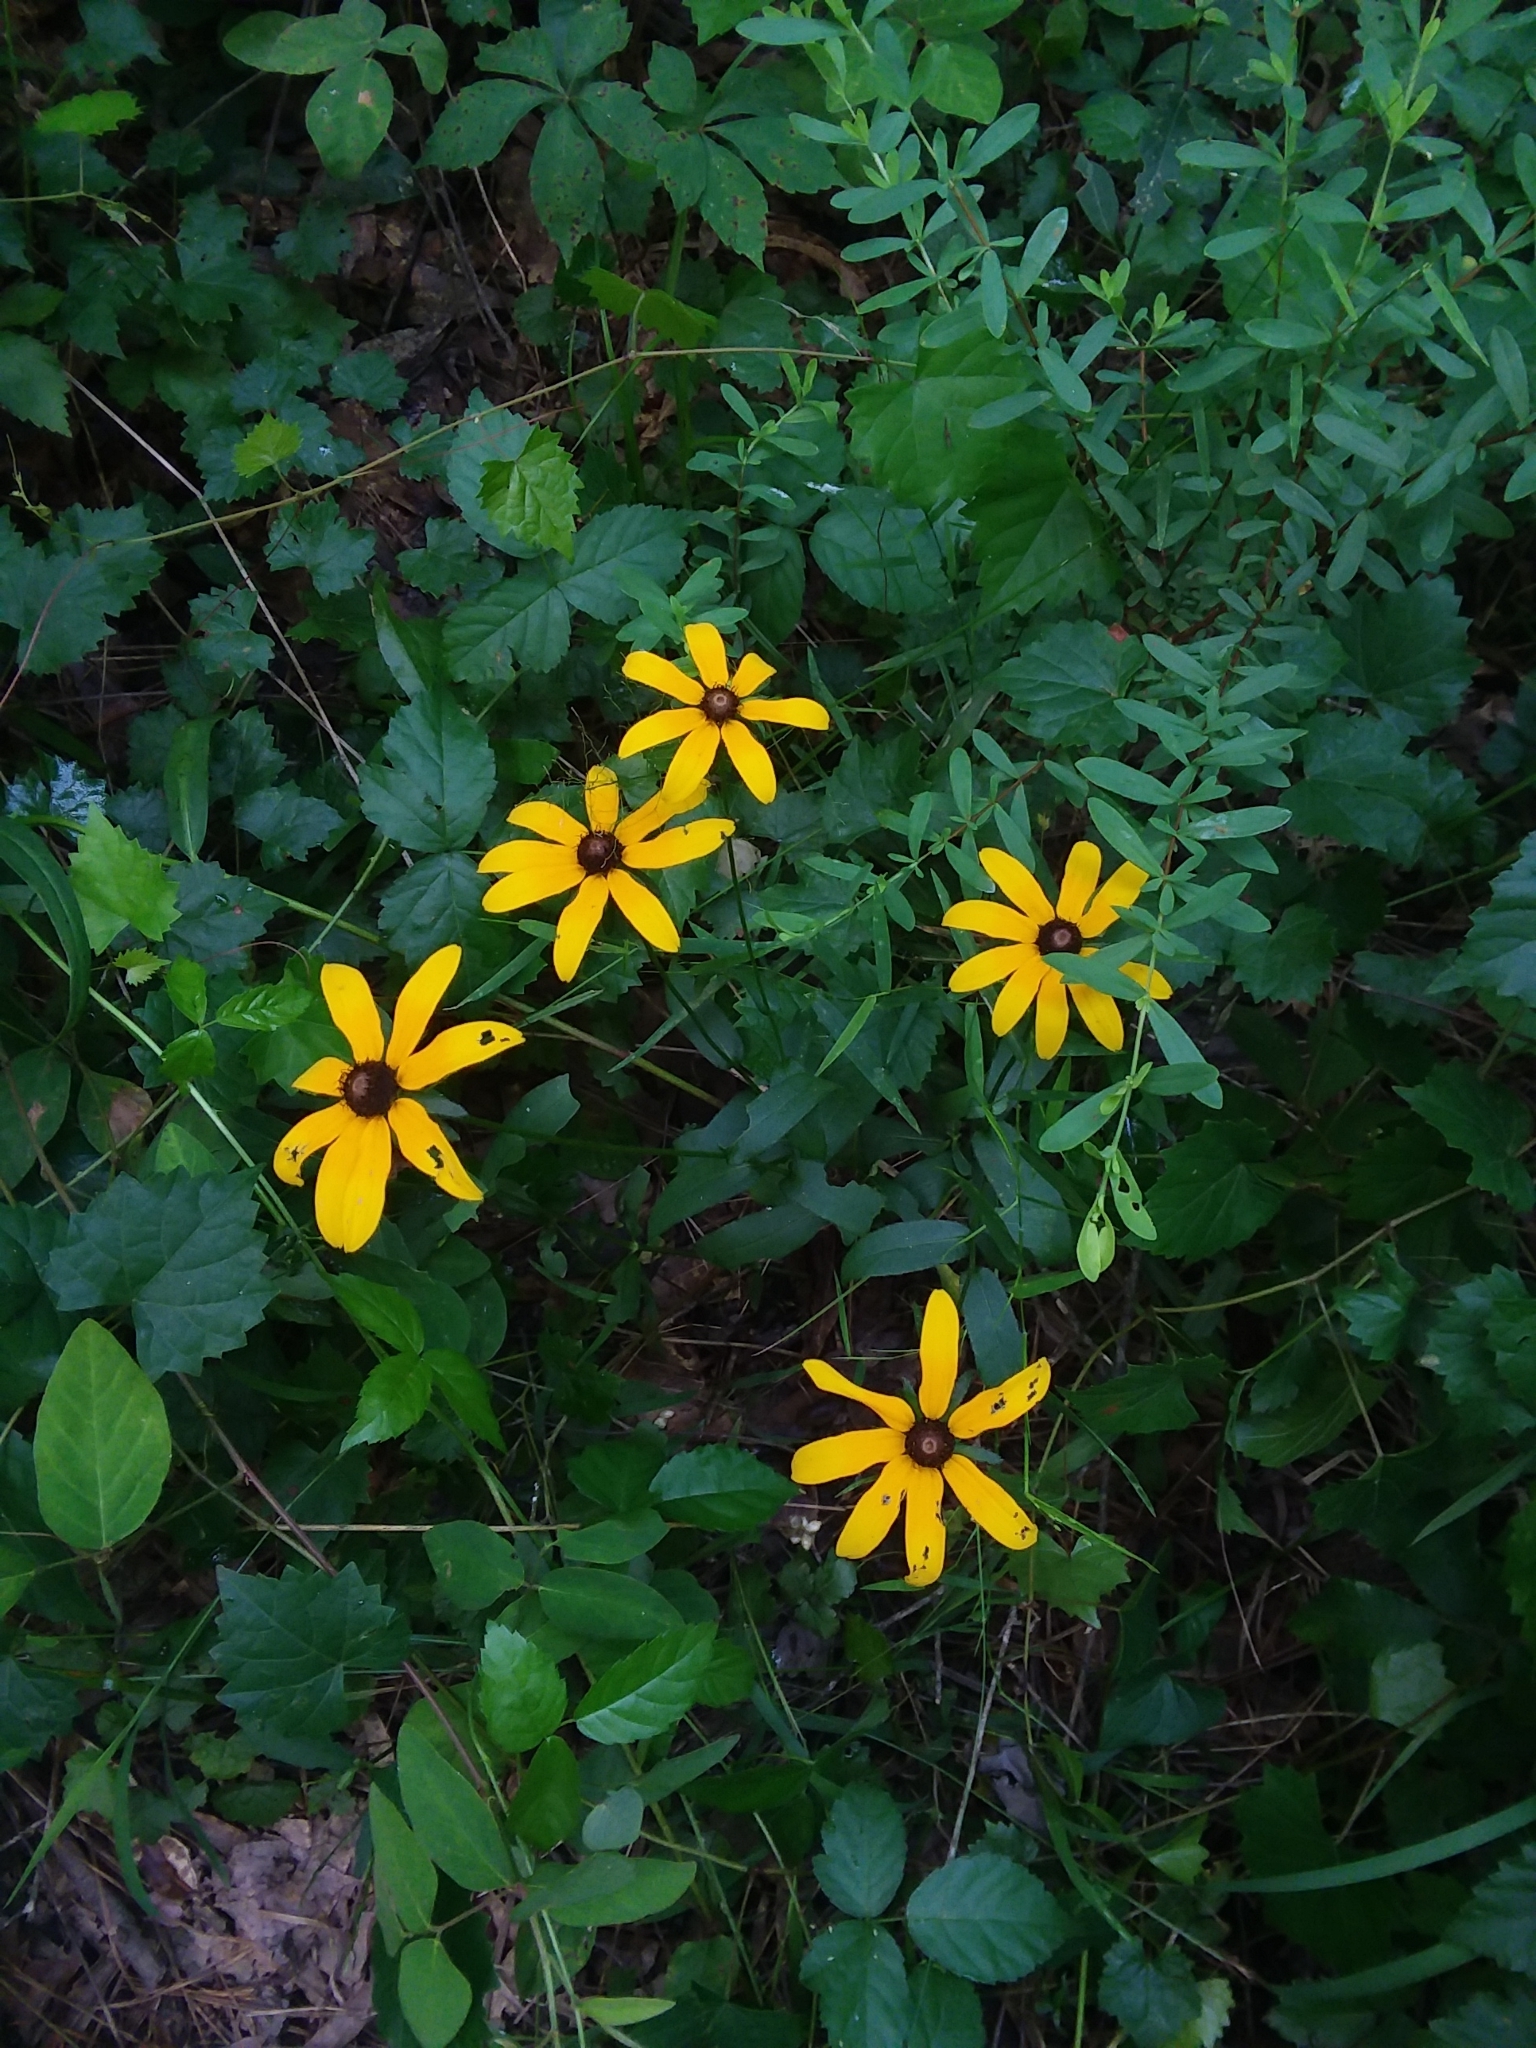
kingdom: Plantae
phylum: Tracheophyta
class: Magnoliopsida
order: Asterales
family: Asteraceae
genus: Rudbeckia
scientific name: Rudbeckia hirta
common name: Black-eyed-susan
